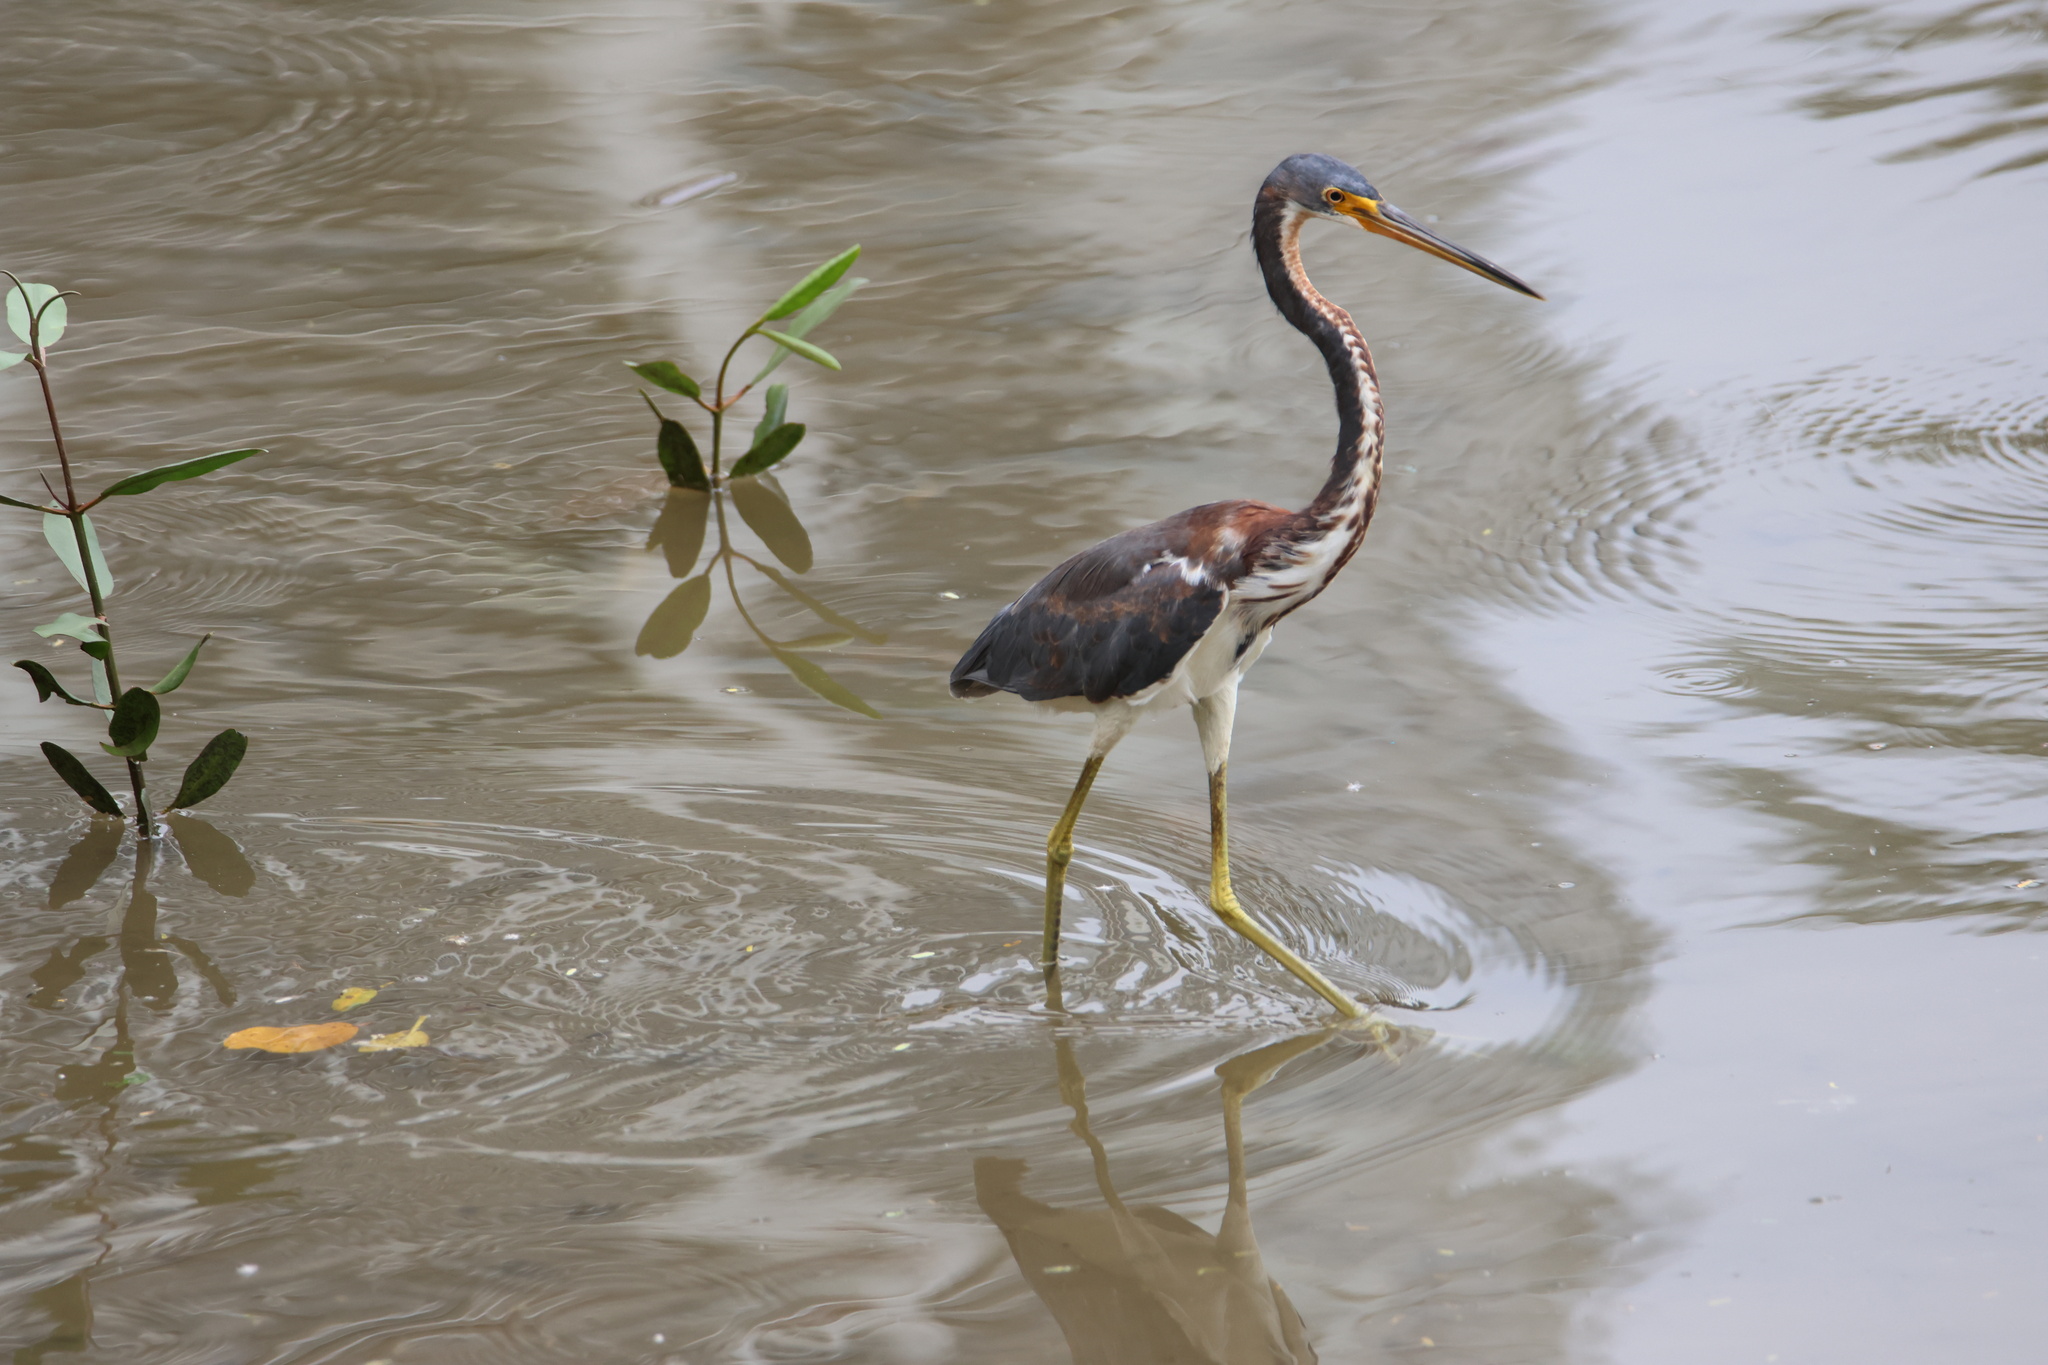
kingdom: Animalia
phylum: Chordata
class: Aves
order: Pelecaniformes
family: Ardeidae
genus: Egretta
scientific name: Egretta tricolor
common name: Tricolored heron
